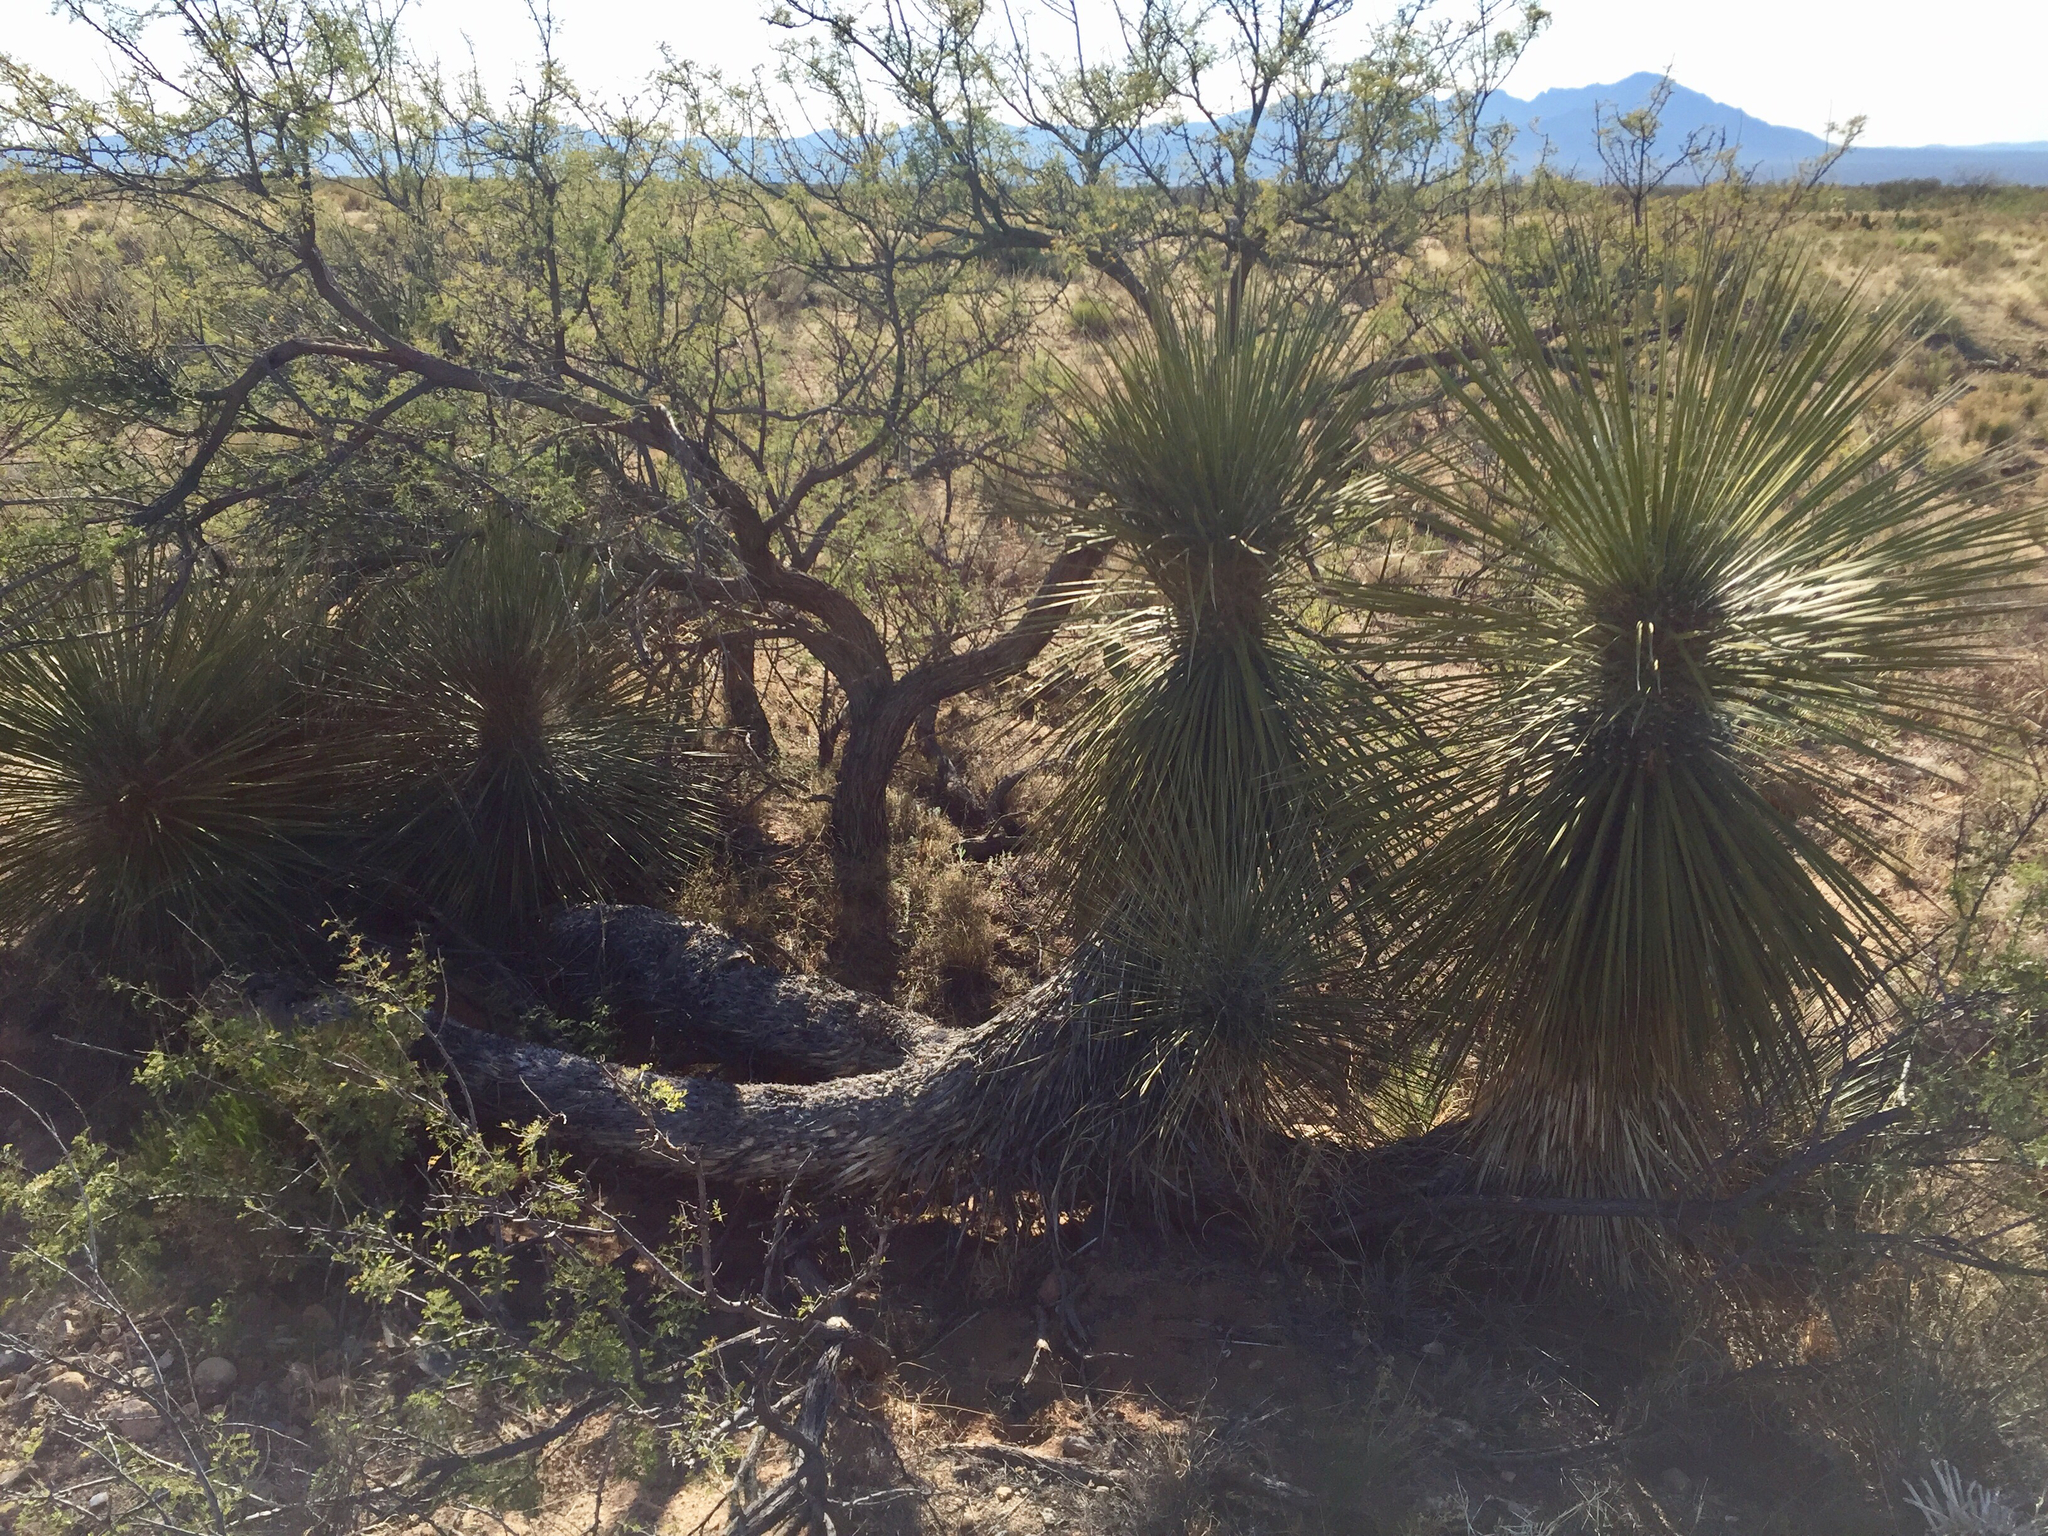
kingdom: Plantae
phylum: Tracheophyta
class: Liliopsida
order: Asparagales
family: Asparagaceae
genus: Yucca
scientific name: Yucca elata
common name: Palmella
